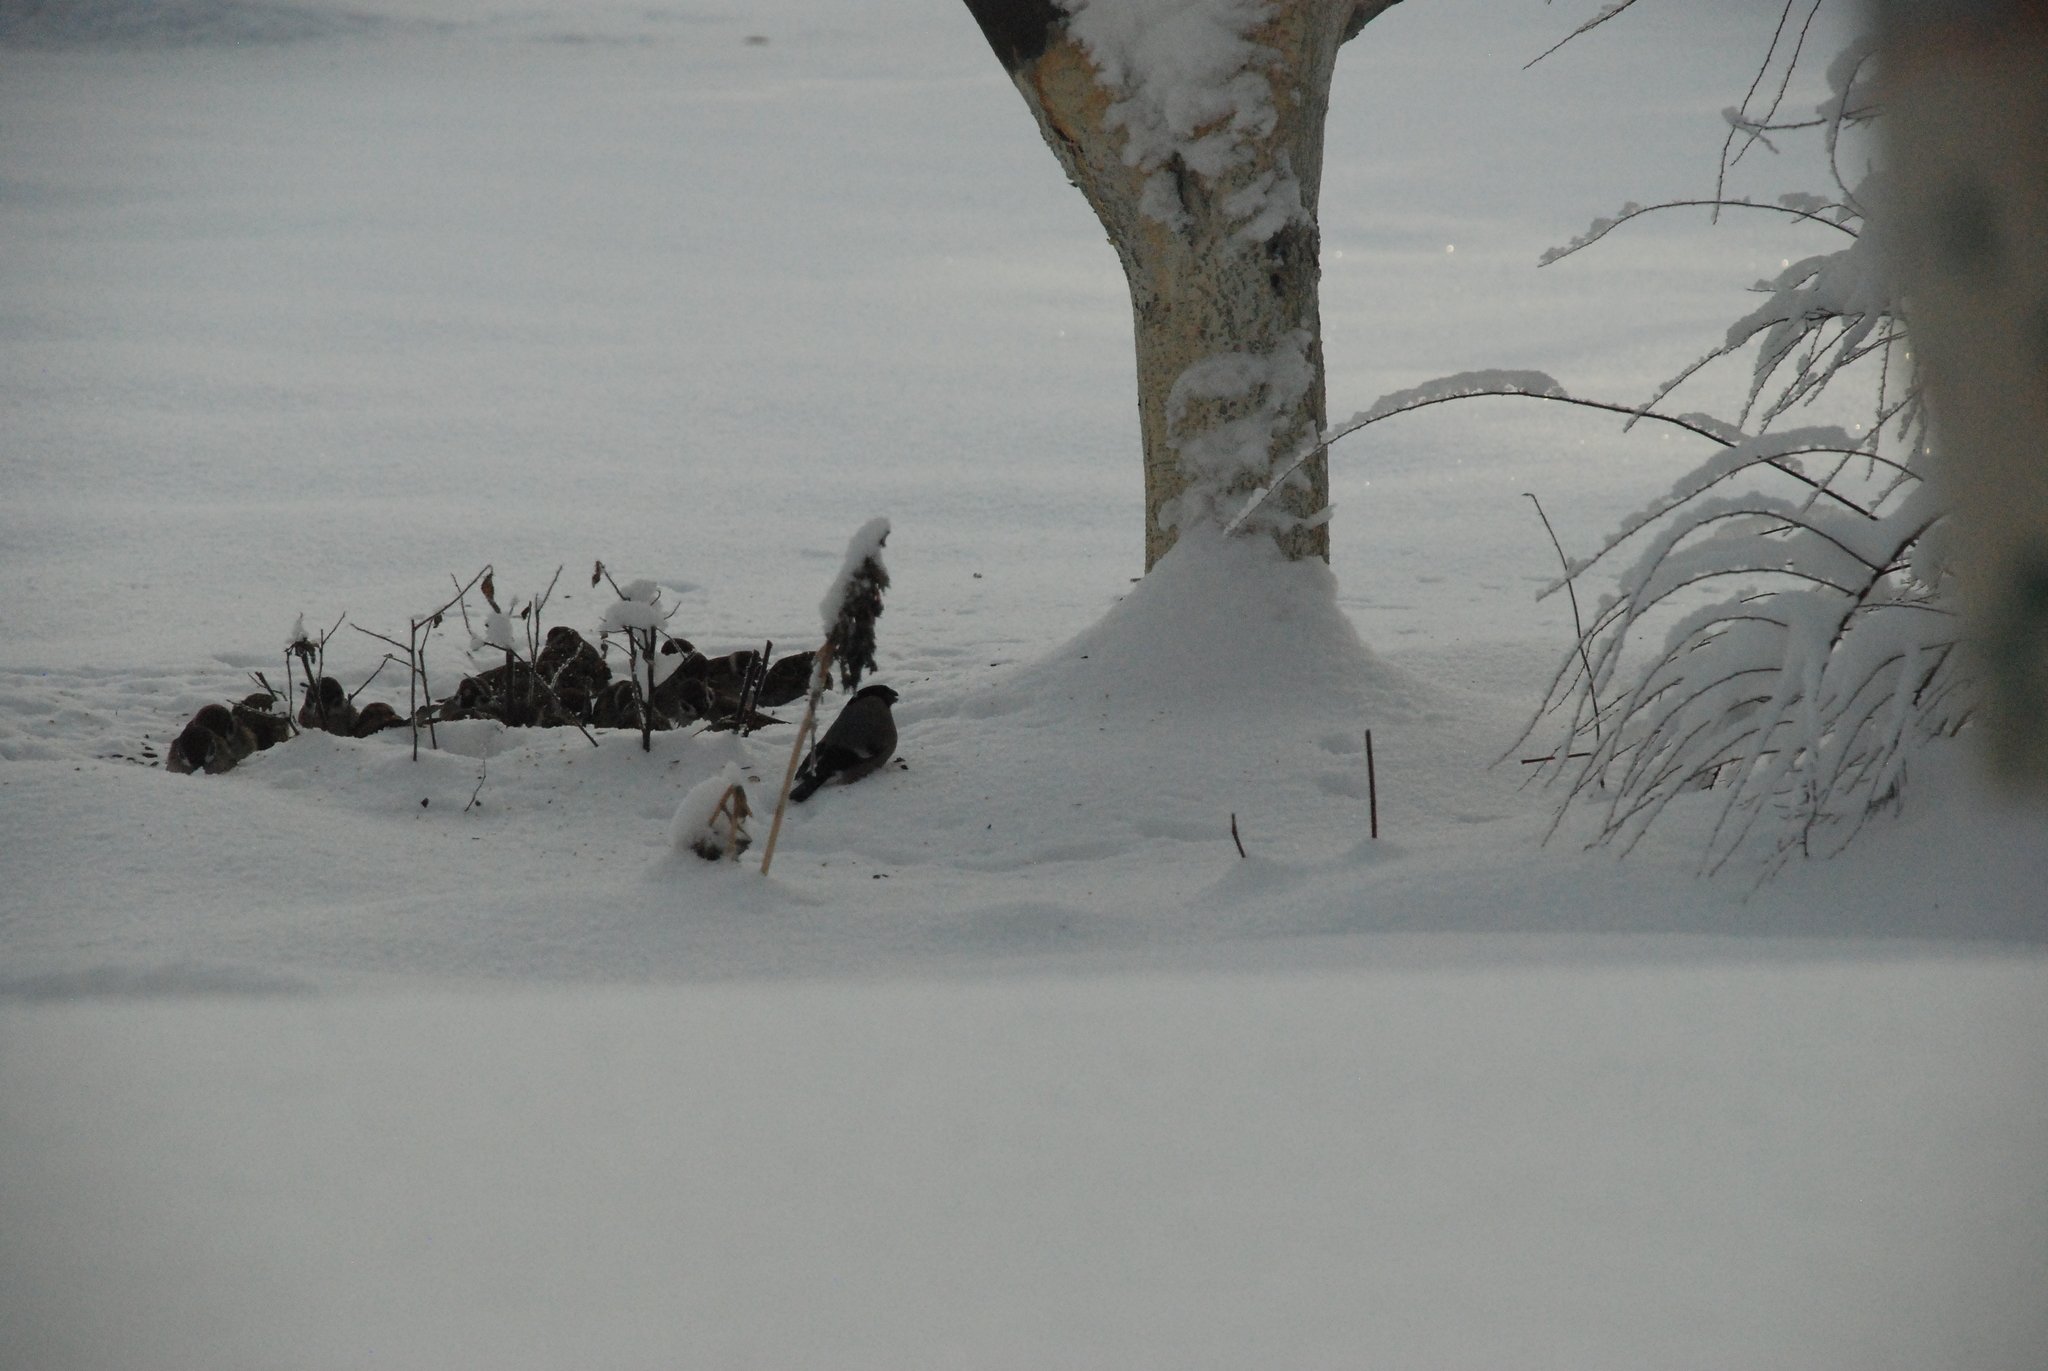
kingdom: Animalia
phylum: Chordata
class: Aves
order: Passeriformes
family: Fringillidae
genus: Pyrrhula
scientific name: Pyrrhula pyrrhula
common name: Eurasian bullfinch
